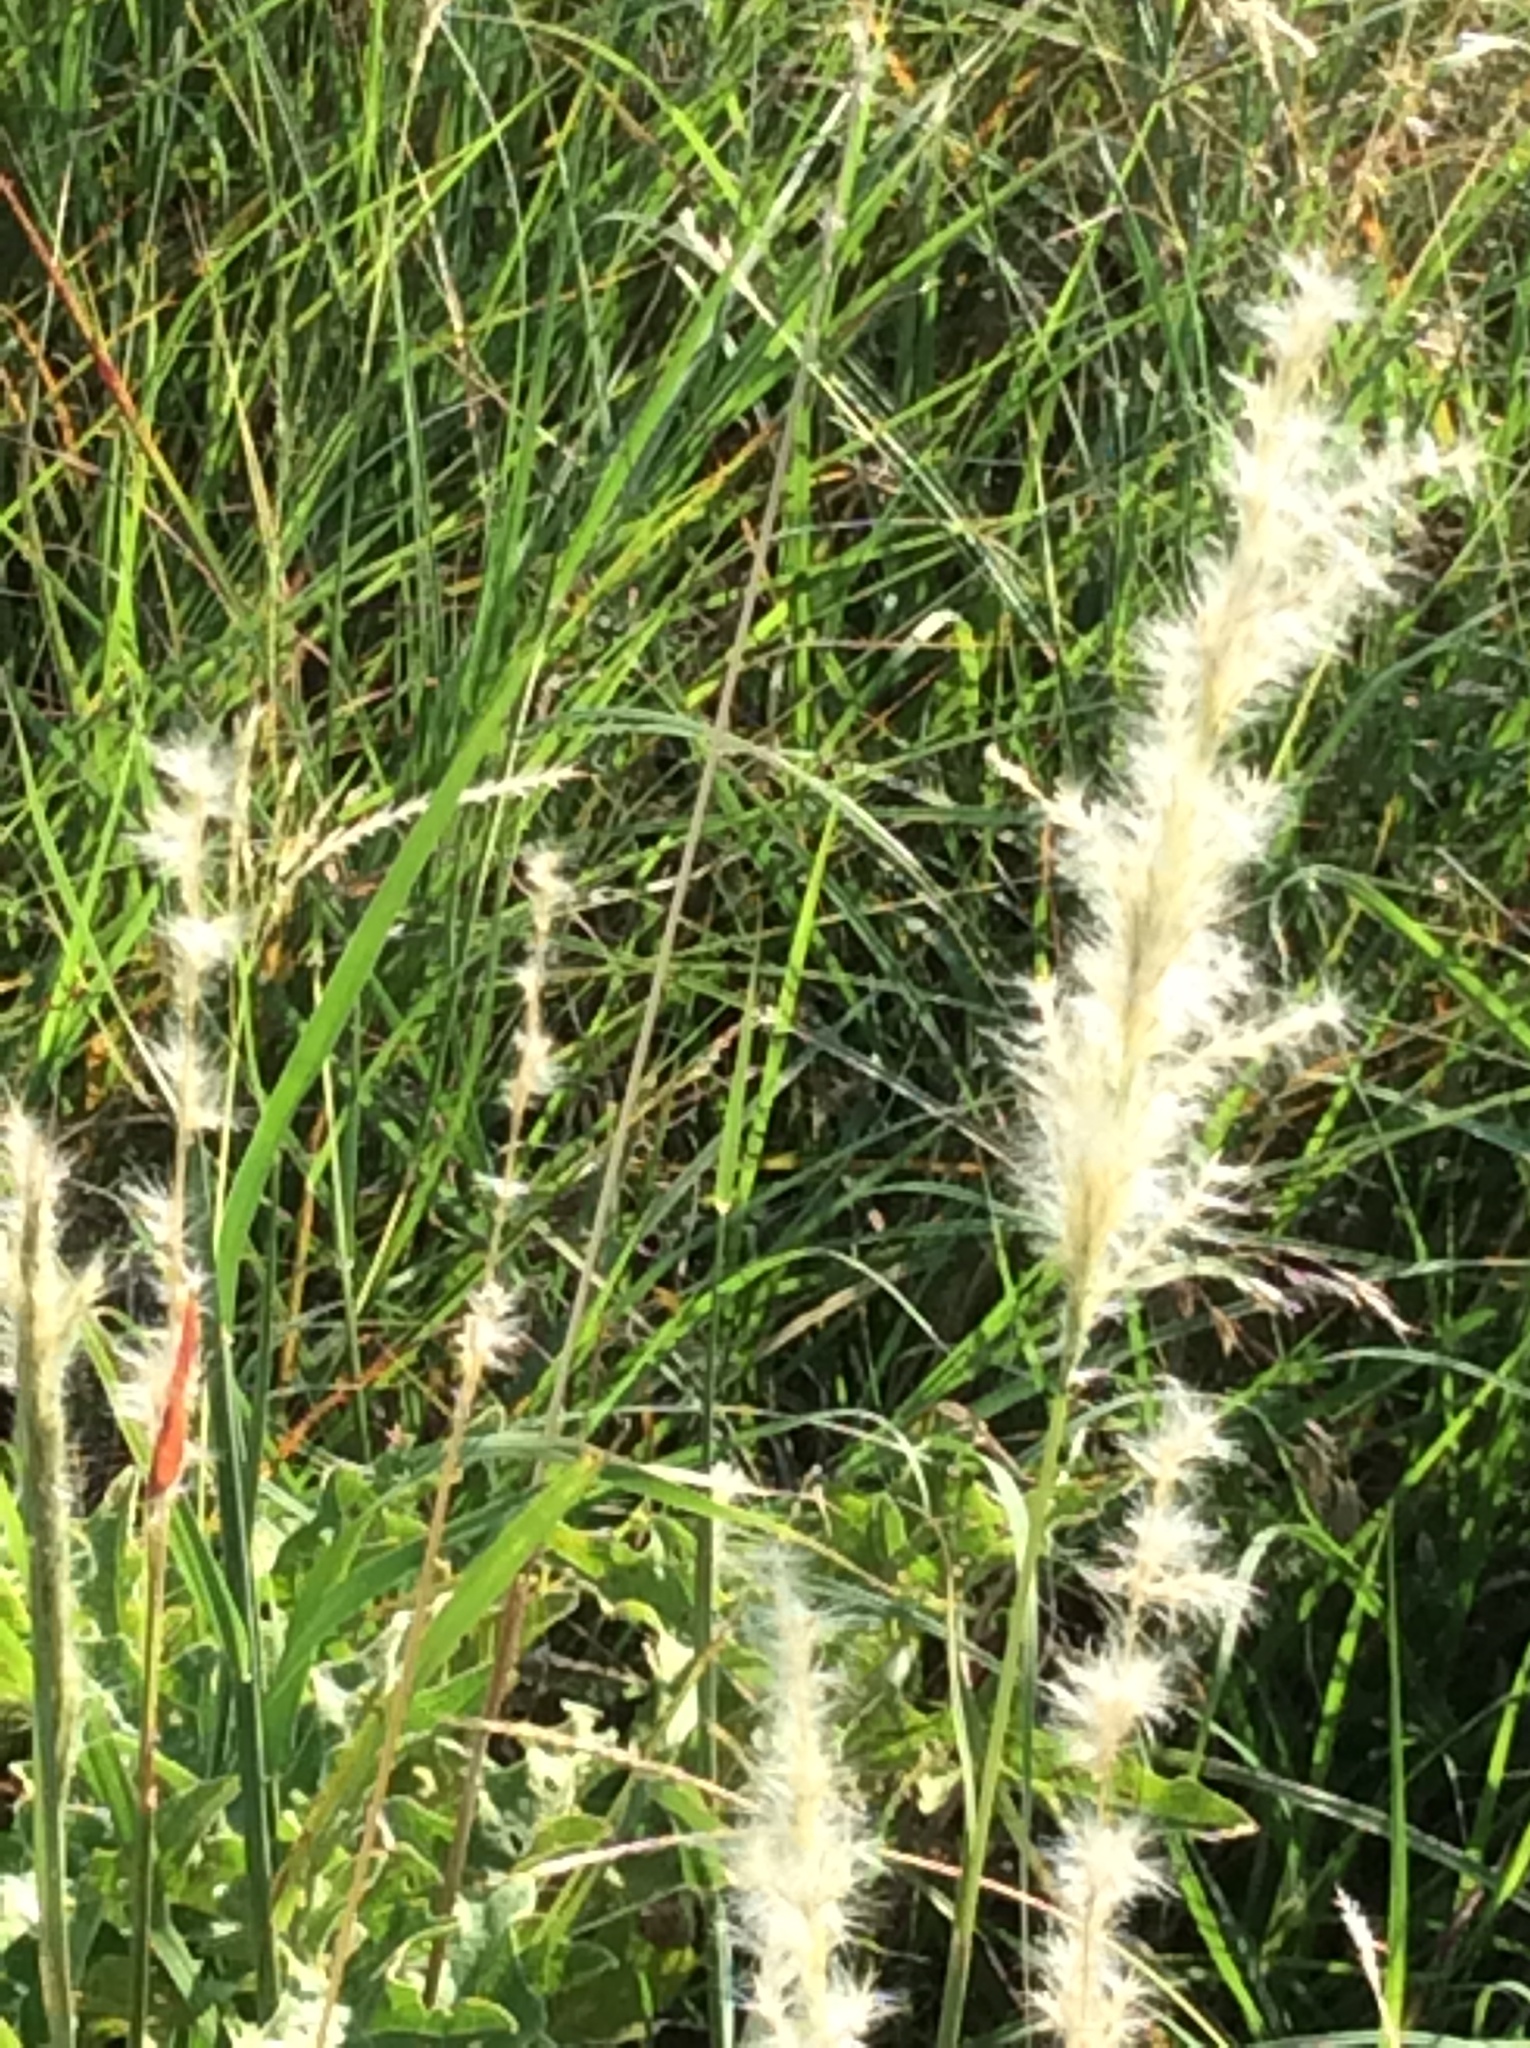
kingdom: Plantae
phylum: Tracheophyta
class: Liliopsida
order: Poales
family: Poaceae
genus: Bothriochloa
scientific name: Bothriochloa torreyana
